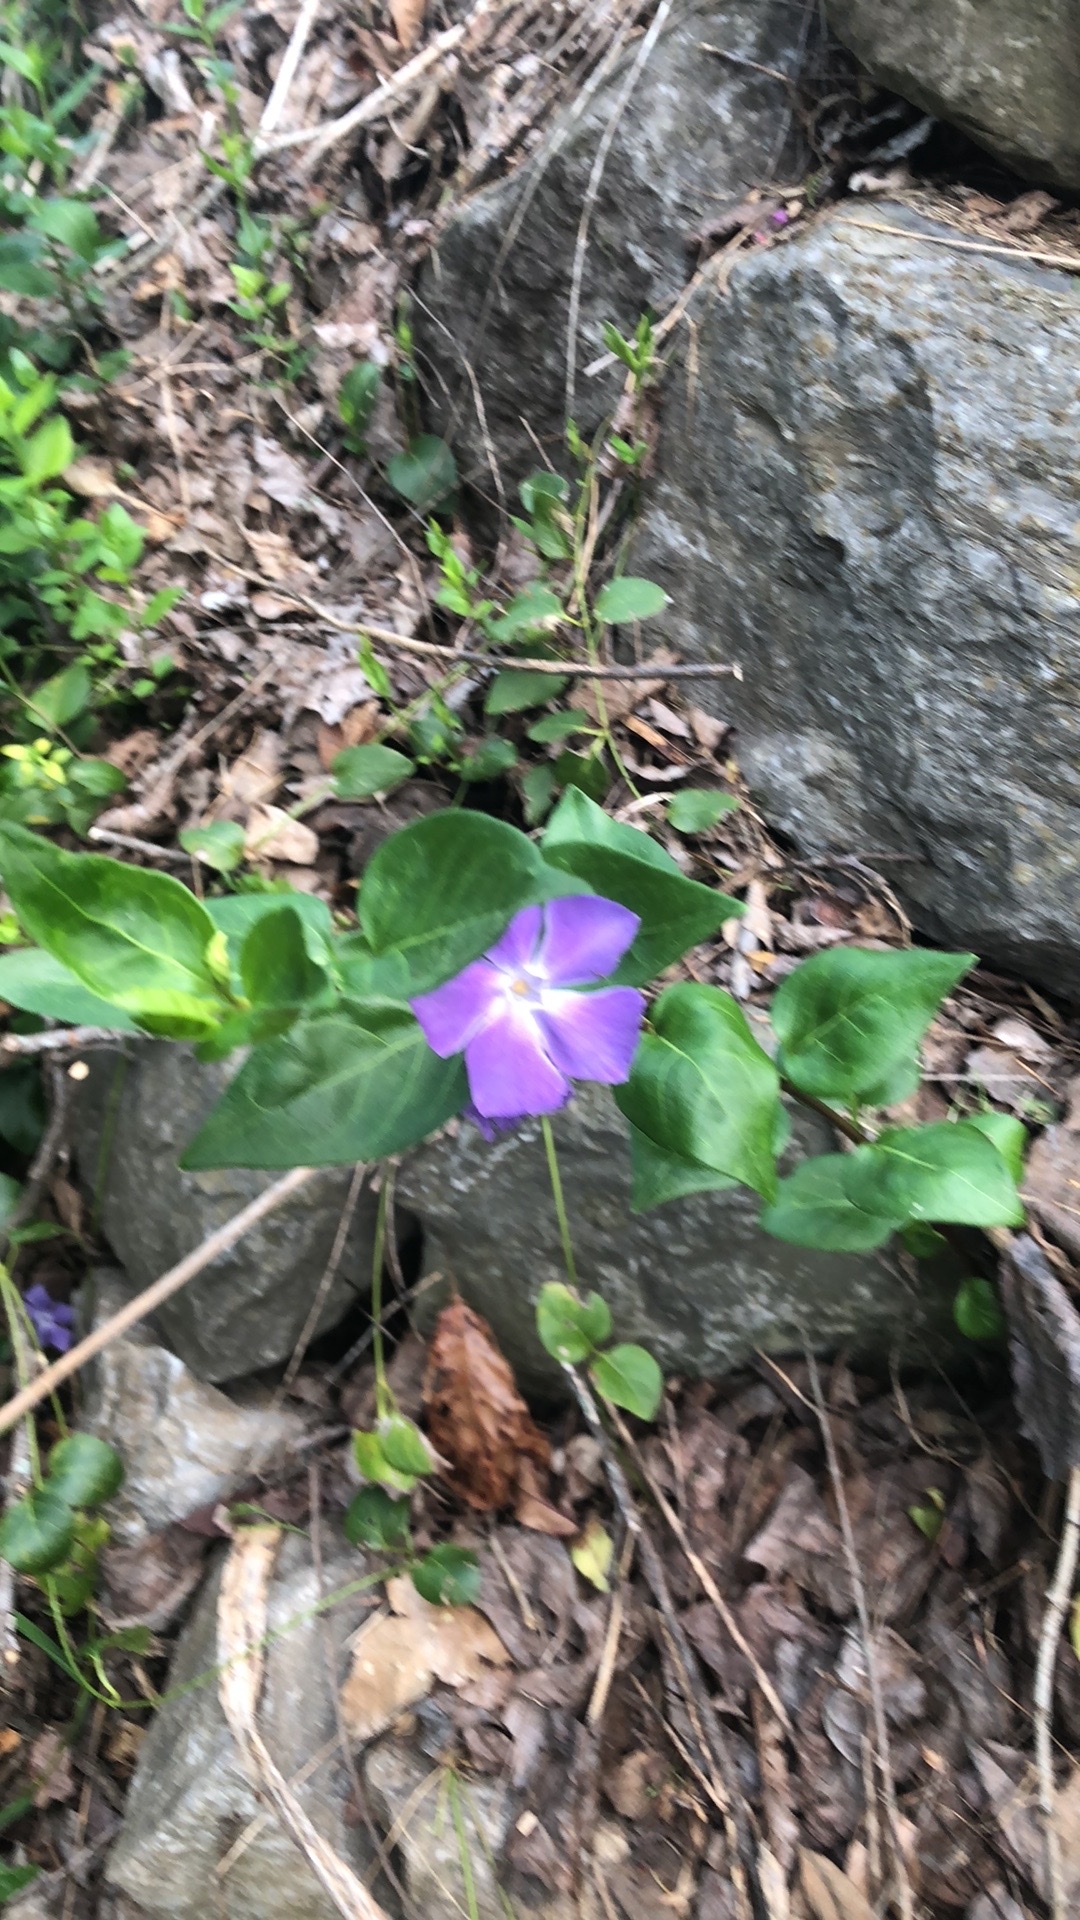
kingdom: Plantae
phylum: Tracheophyta
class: Magnoliopsida
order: Gentianales
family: Apocynaceae
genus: Vinca
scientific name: Vinca major
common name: Greater periwinkle
